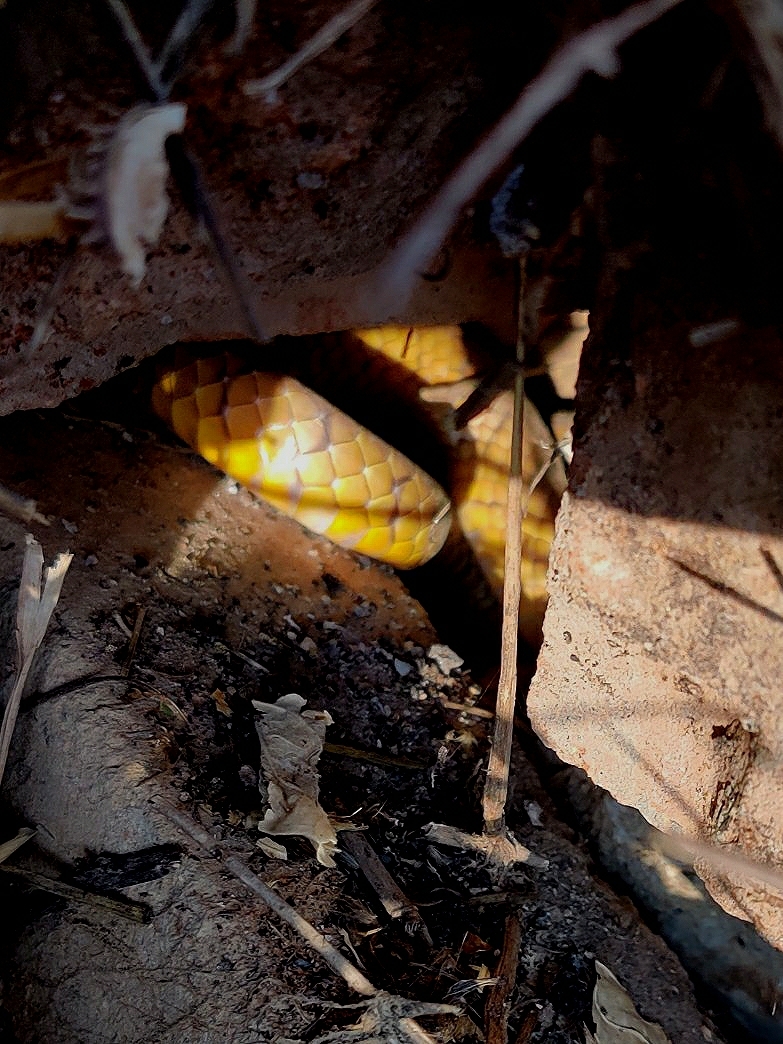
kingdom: Animalia
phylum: Chordata
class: Squamata
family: Colubridae
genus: Ptyas
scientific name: Ptyas mucosa
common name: Oriental ratsnake
